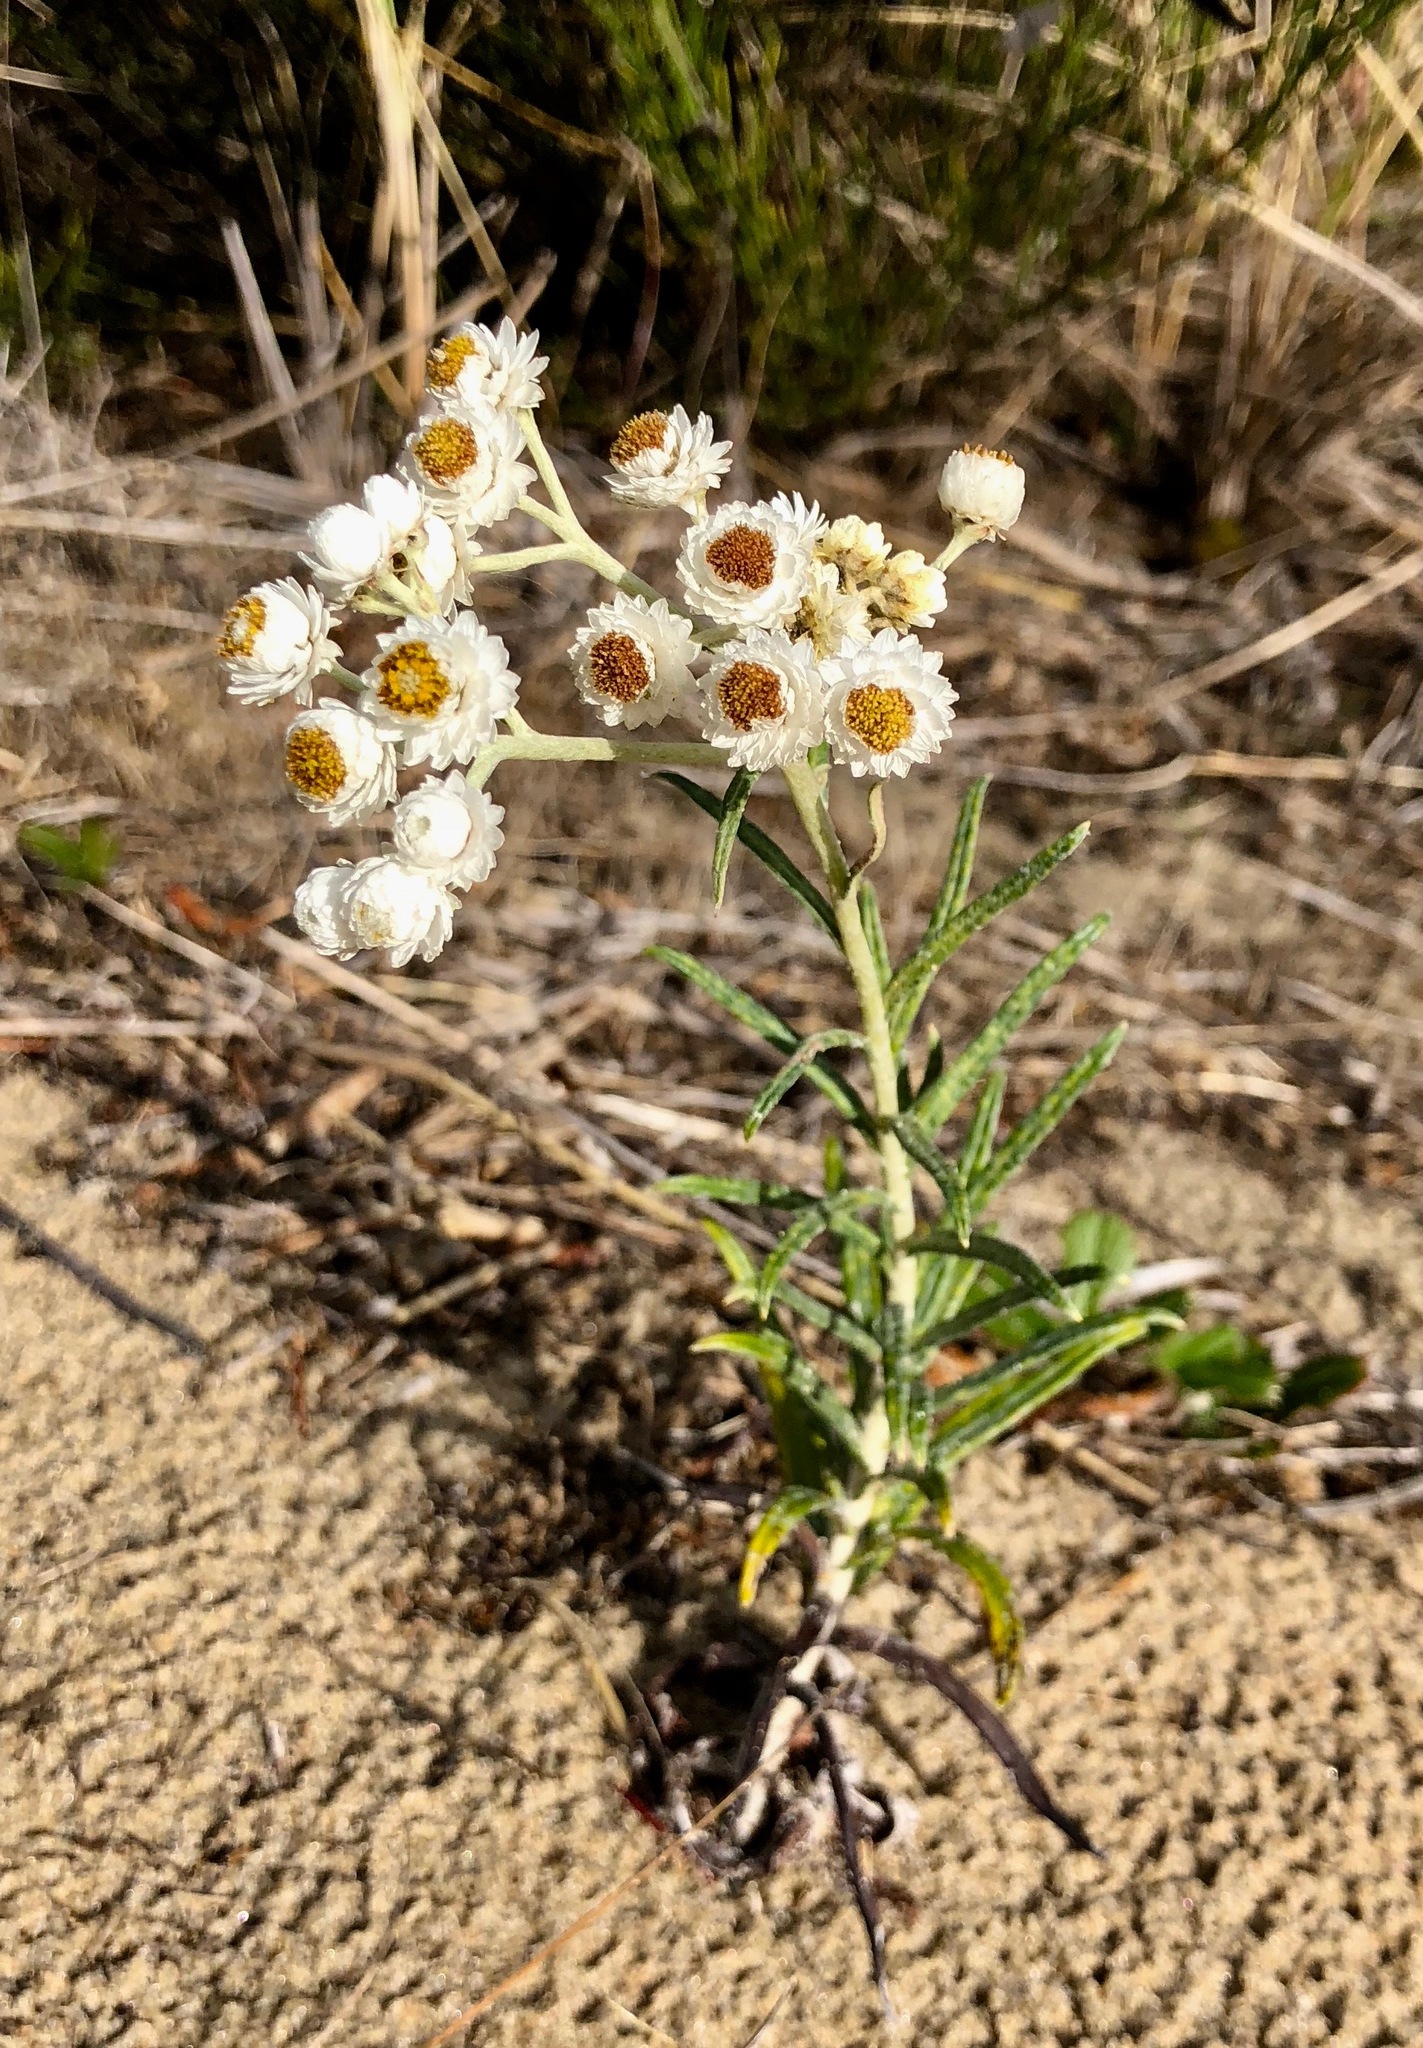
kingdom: Plantae
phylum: Tracheophyta
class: Magnoliopsida
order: Asterales
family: Asteraceae
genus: Anaphalis
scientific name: Anaphalis margaritacea
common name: Pearly everlasting
